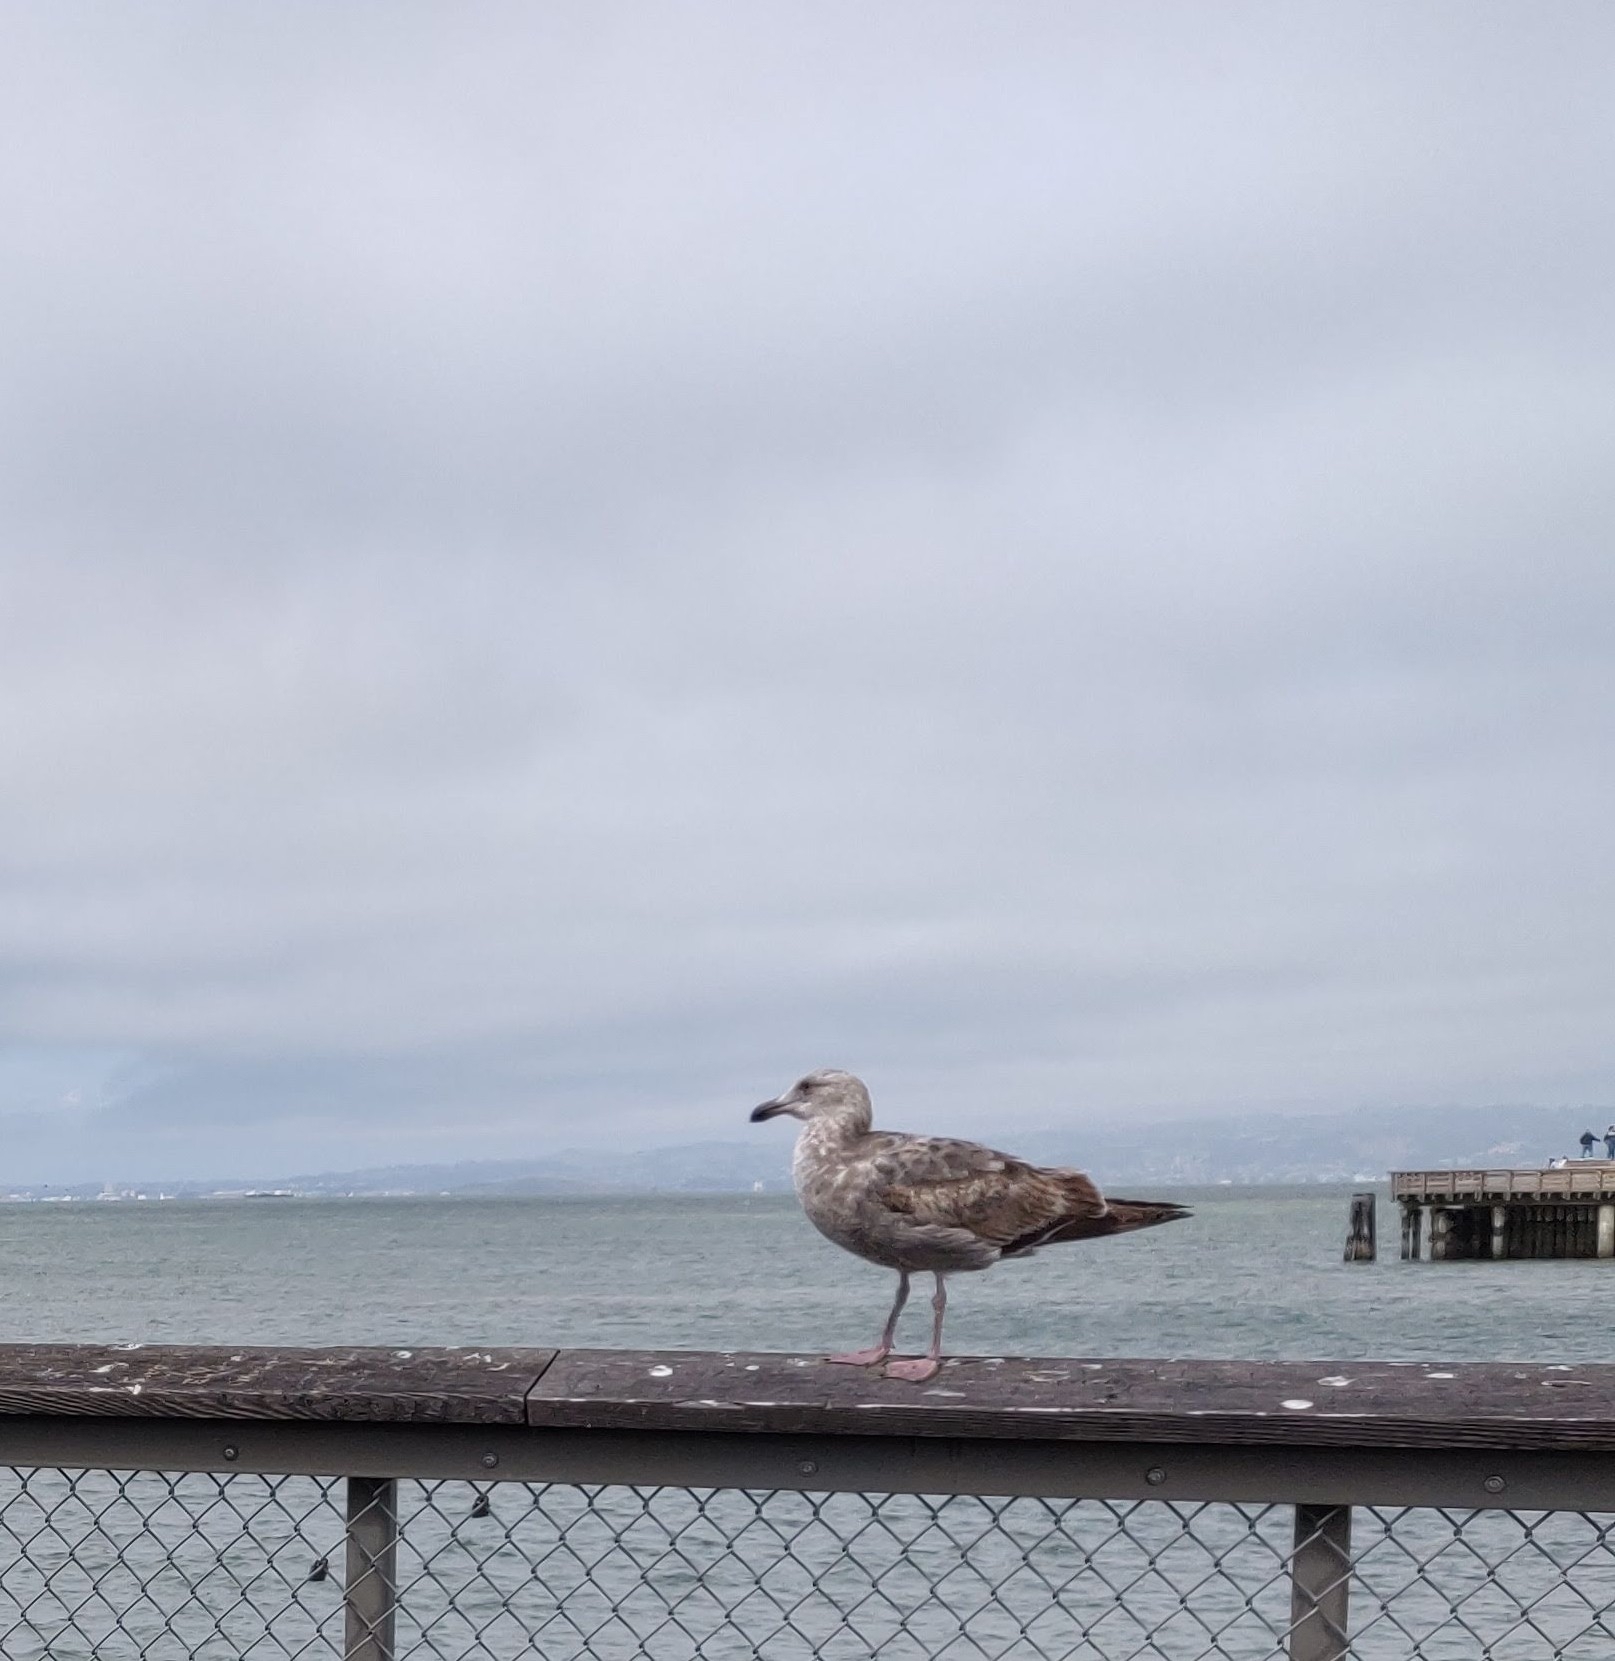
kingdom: Animalia
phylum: Chordata
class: Aves
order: Charadriiformes
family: Laridae
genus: Larus
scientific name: Larus occidentalis
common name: Western gull
